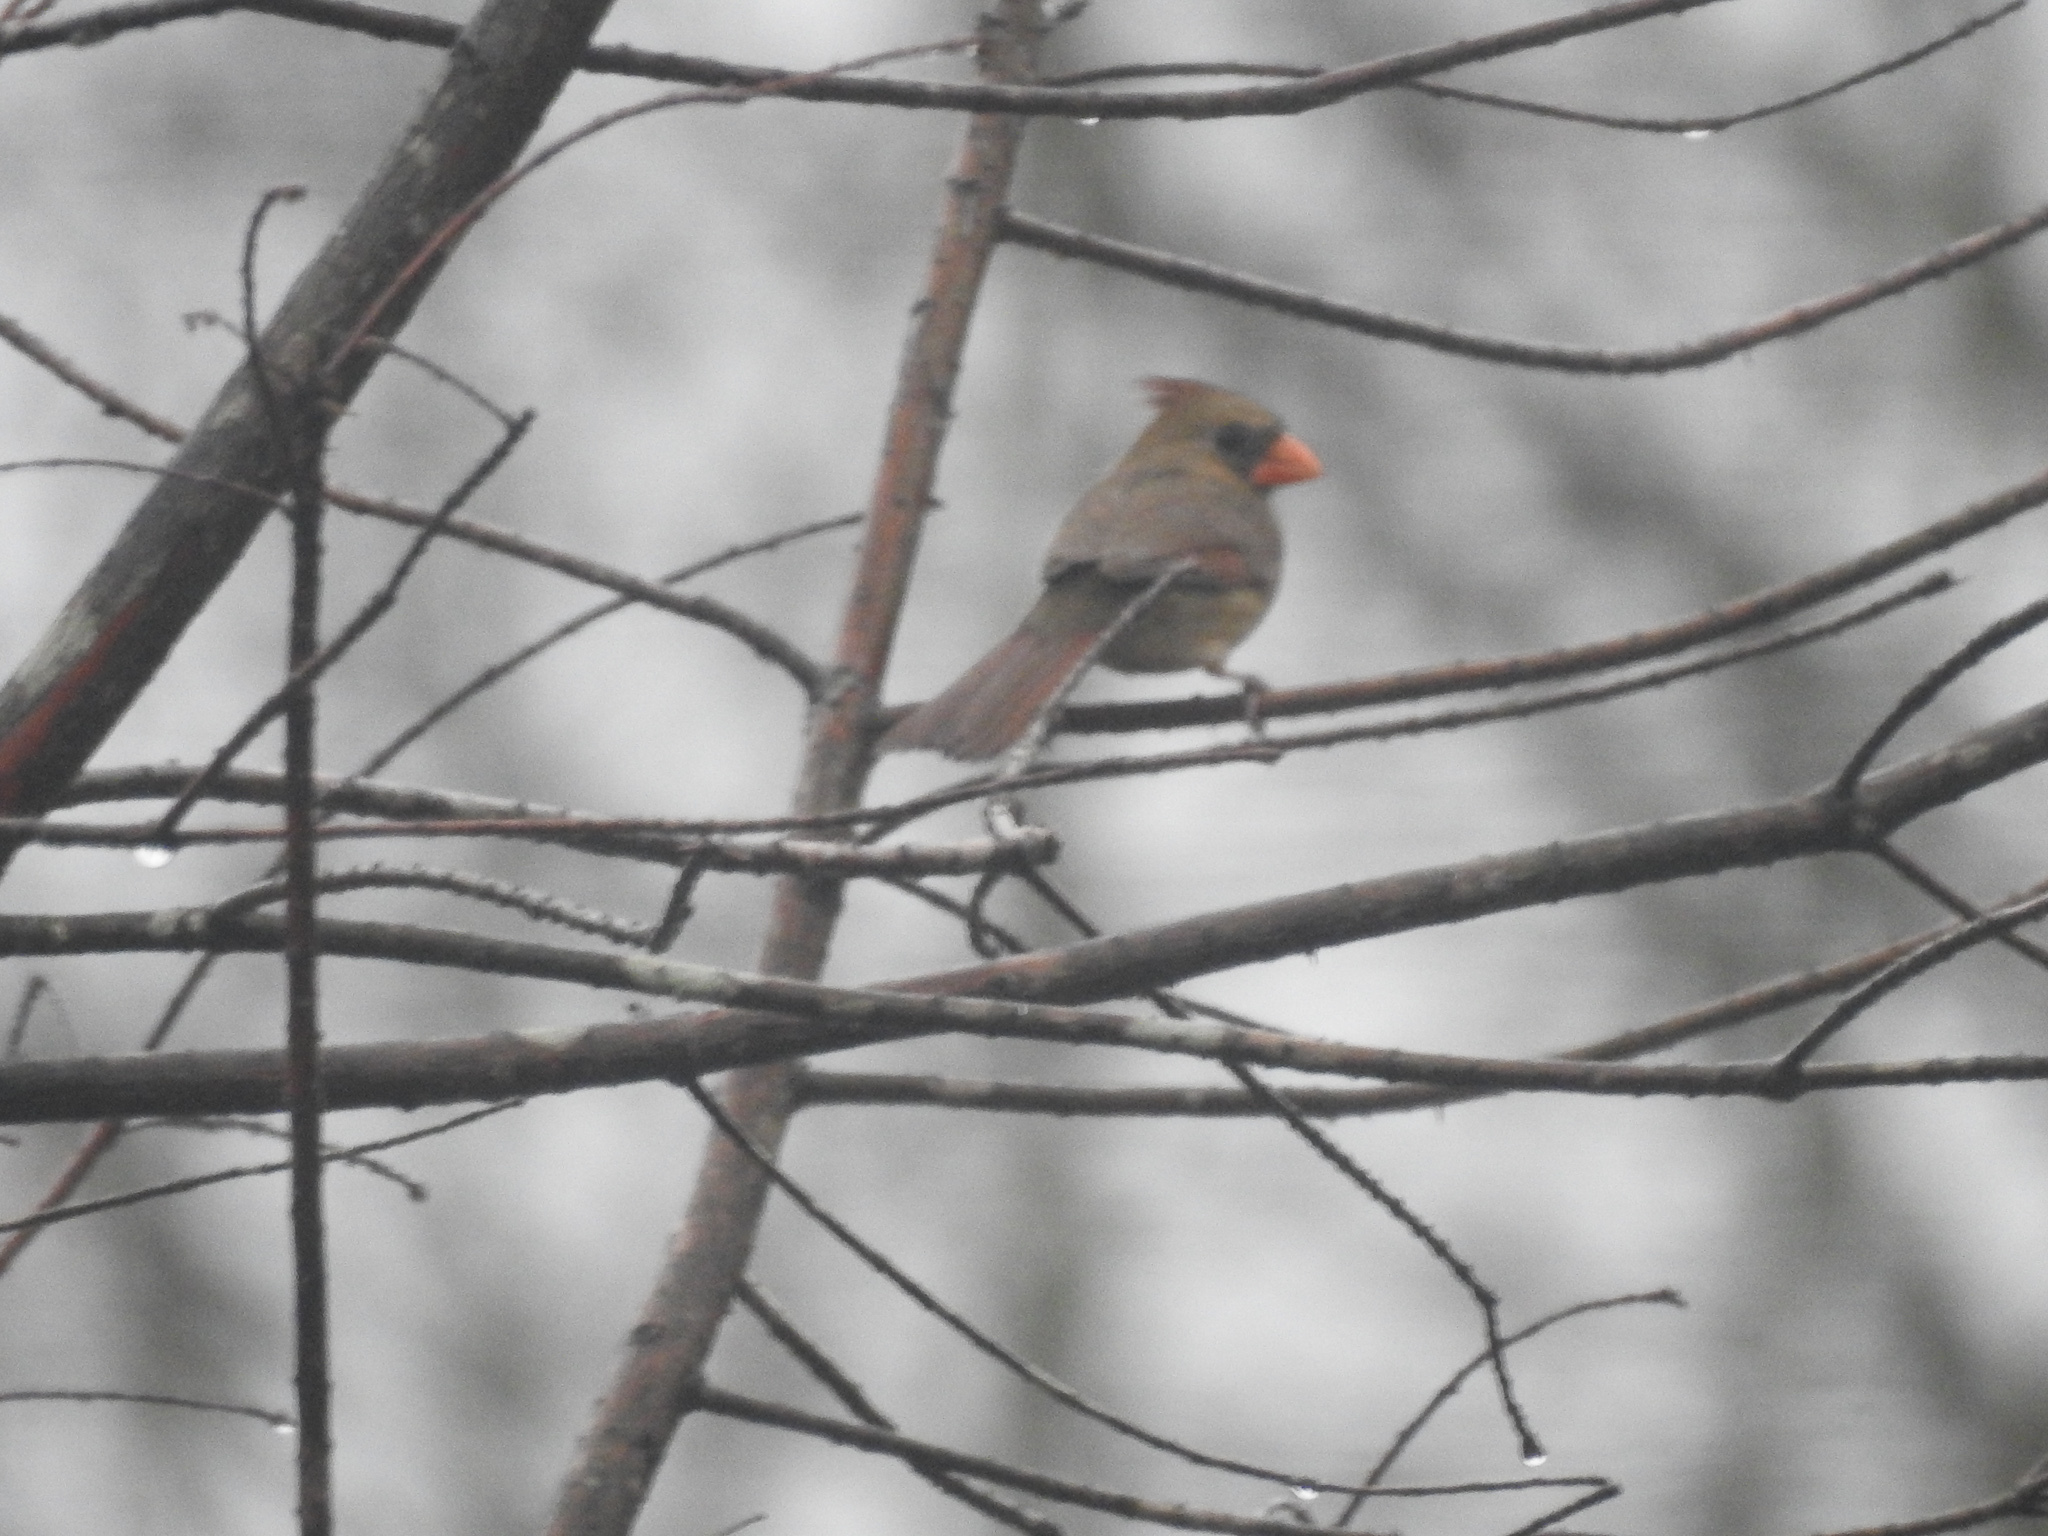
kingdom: Animalia
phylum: Chordata
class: Aves
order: Passeriformes
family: Cardinalidae
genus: Cardinalis
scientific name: Cardinalis cardinalis
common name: Northern cardinal
